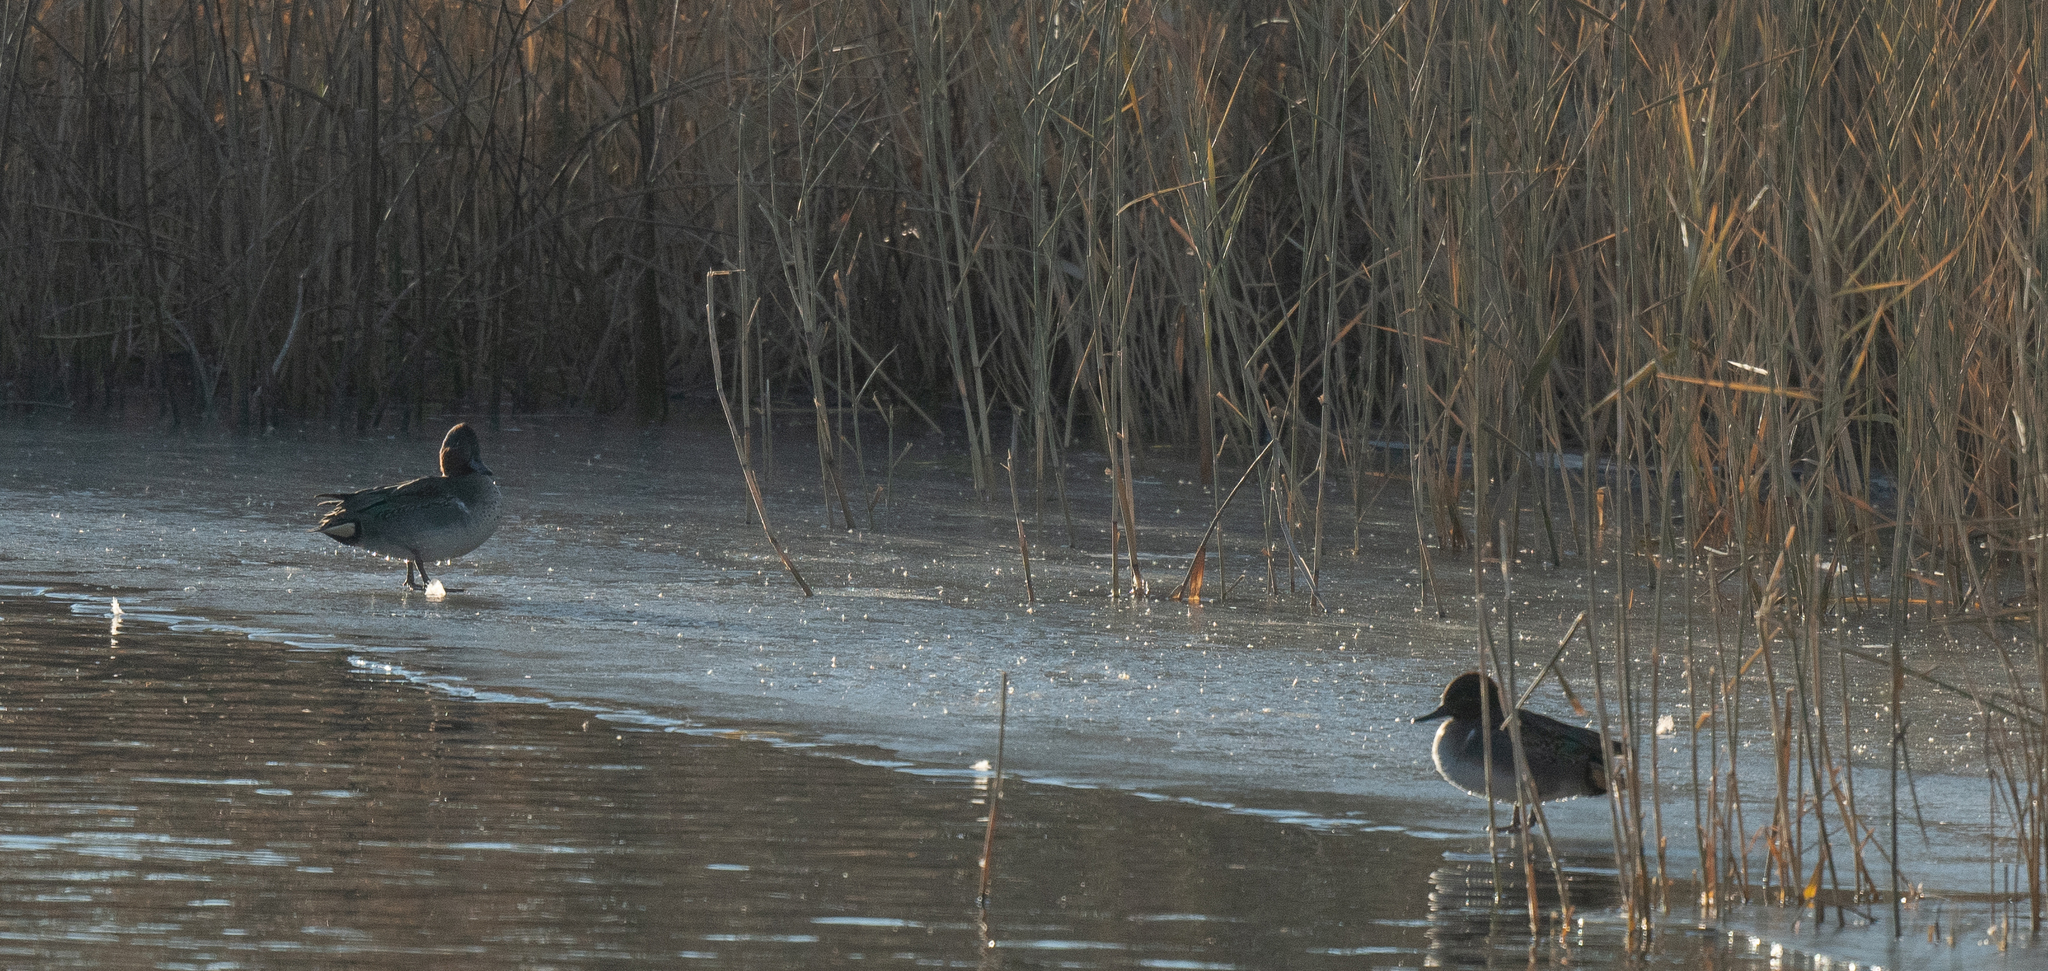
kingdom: Animalia
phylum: Chordata
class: Aves
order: Anseriformes
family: Anatidae
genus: Anas
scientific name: Anas crecca
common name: Eurasian teal
